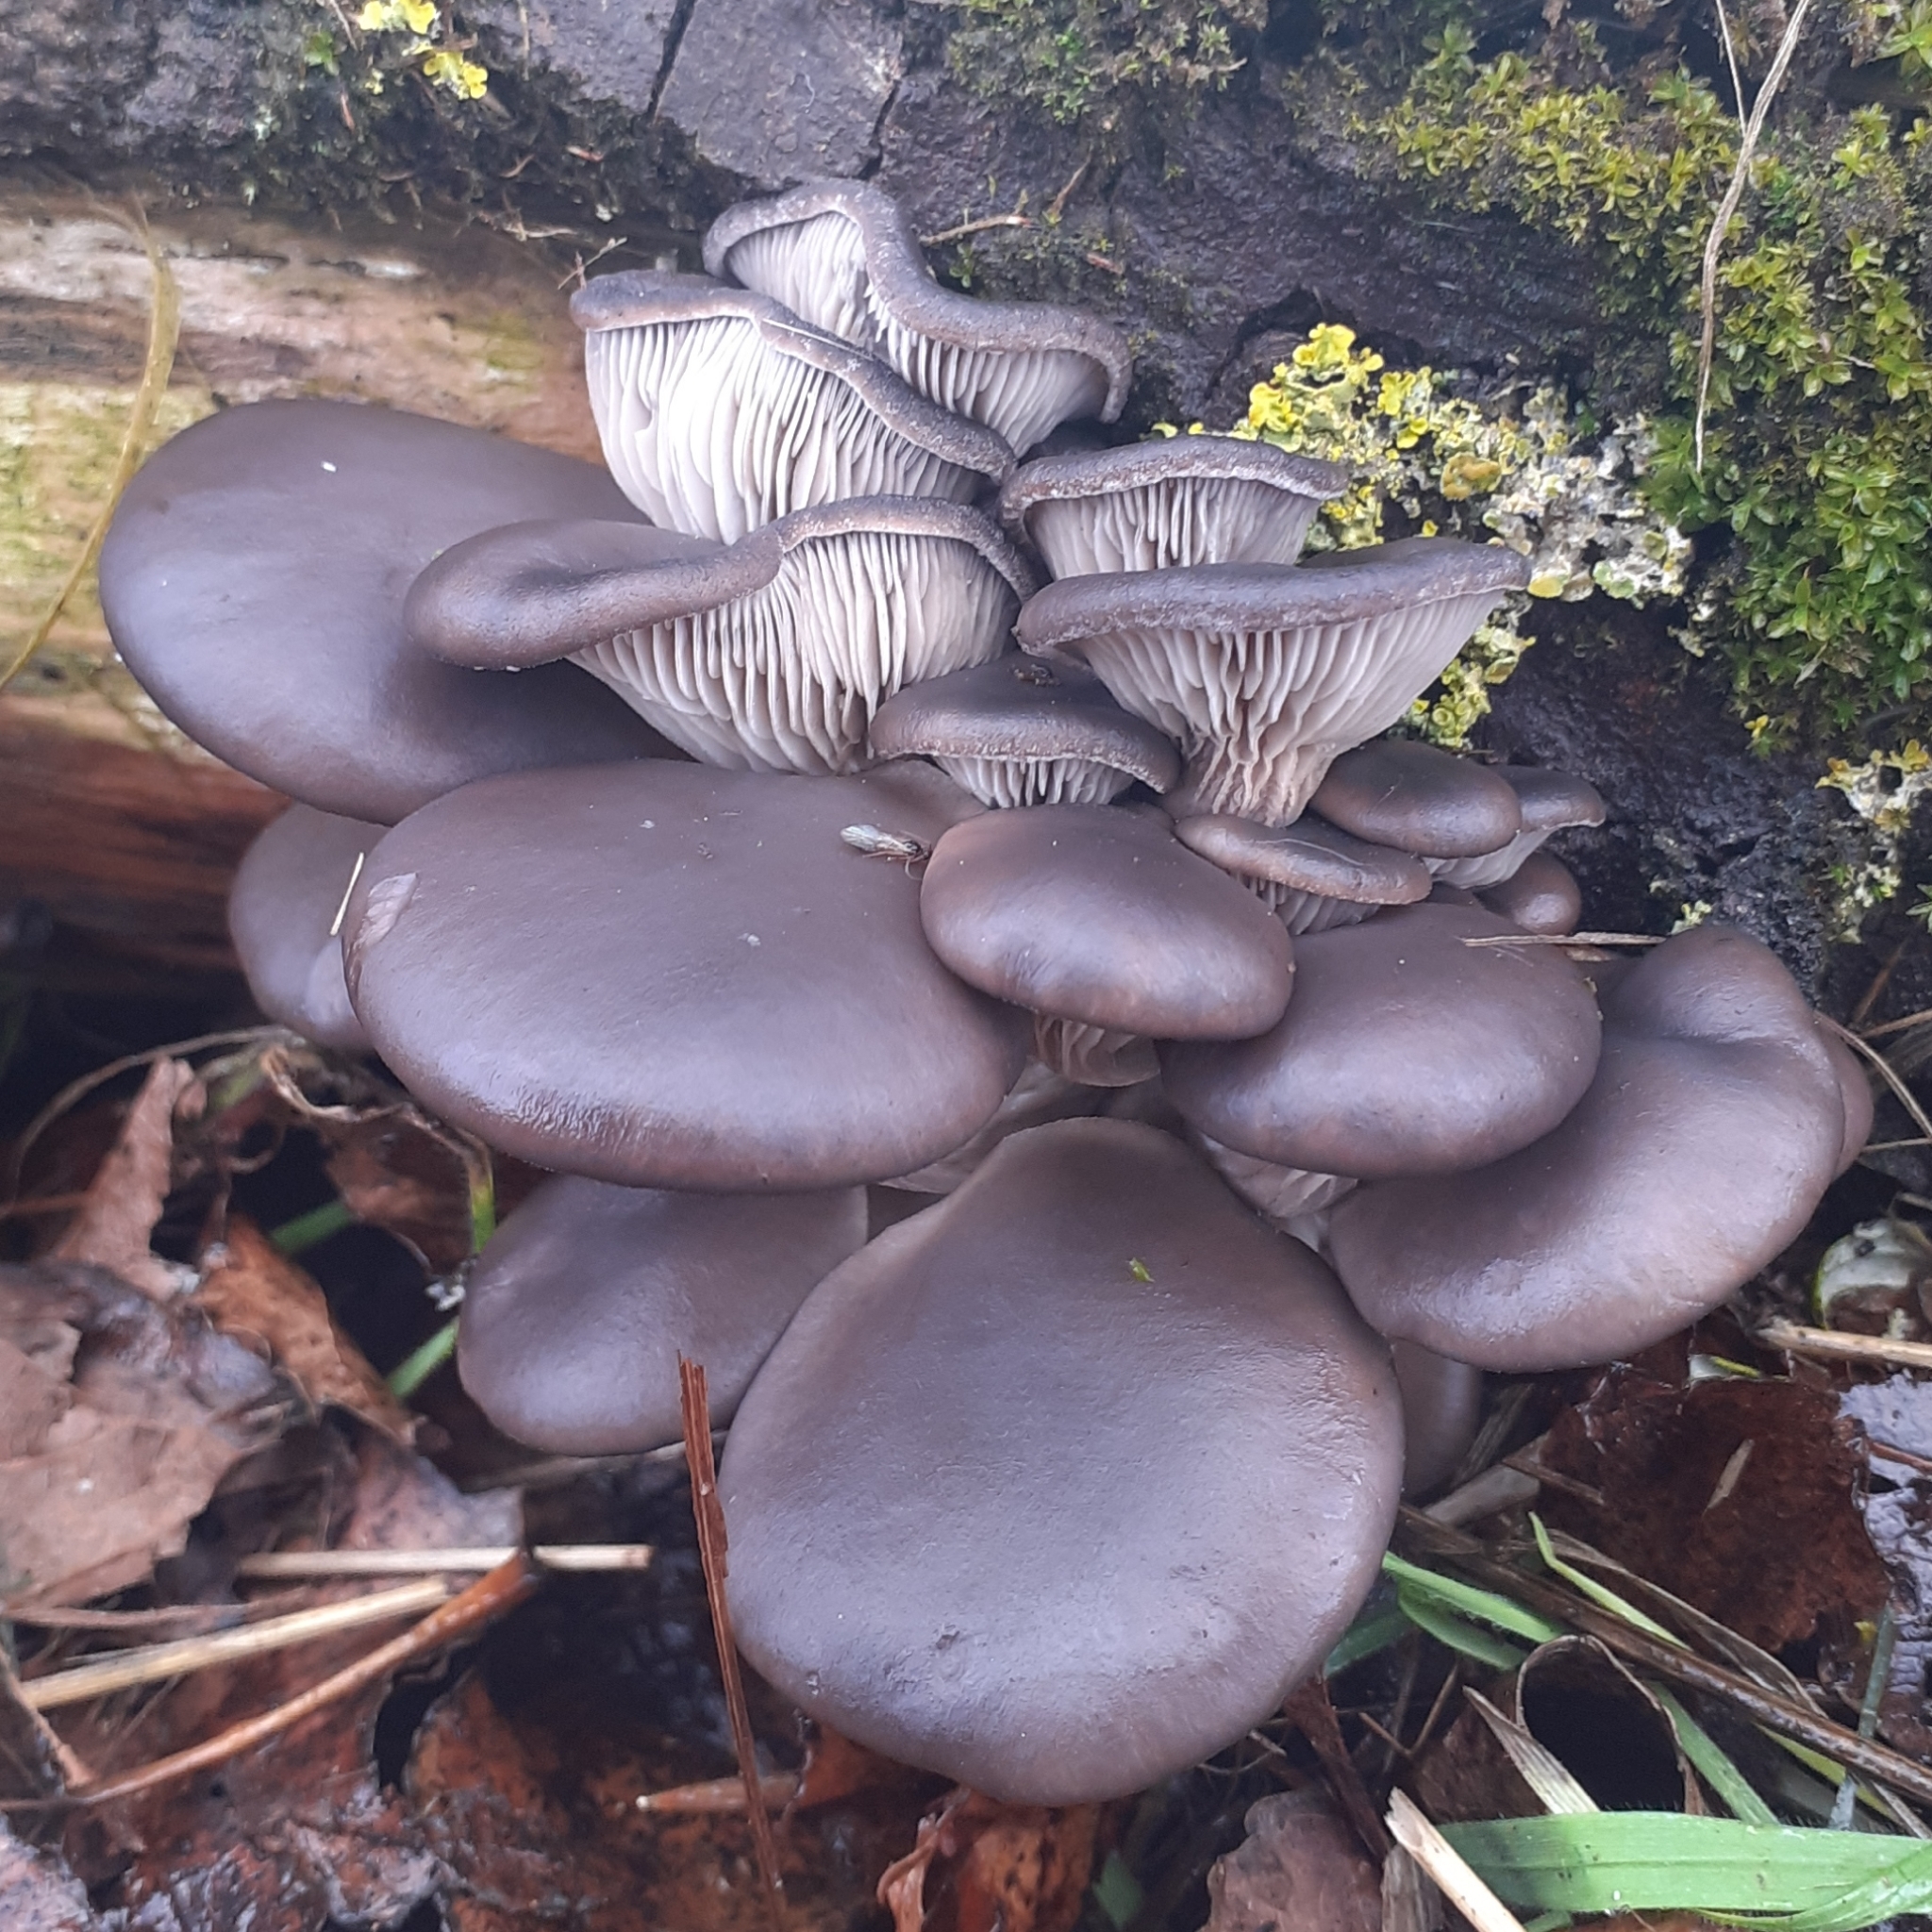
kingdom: Fungi
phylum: Basidiomycota
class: Agaricomycetes
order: Agaricales
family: Pleurotaceae
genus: Pleurotus
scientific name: Pleurotus ostreatus
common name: Oyster mushroom
